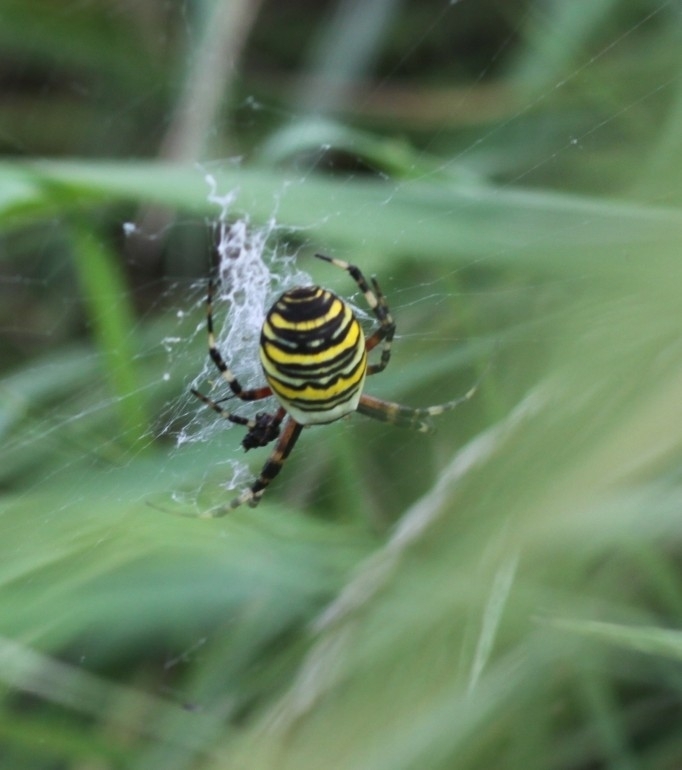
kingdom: Animalia
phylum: Arthropoda
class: Arachnida
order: Araneae
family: Araneidae
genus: Argiope
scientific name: Argiope bruennichi
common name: Wasp spider
